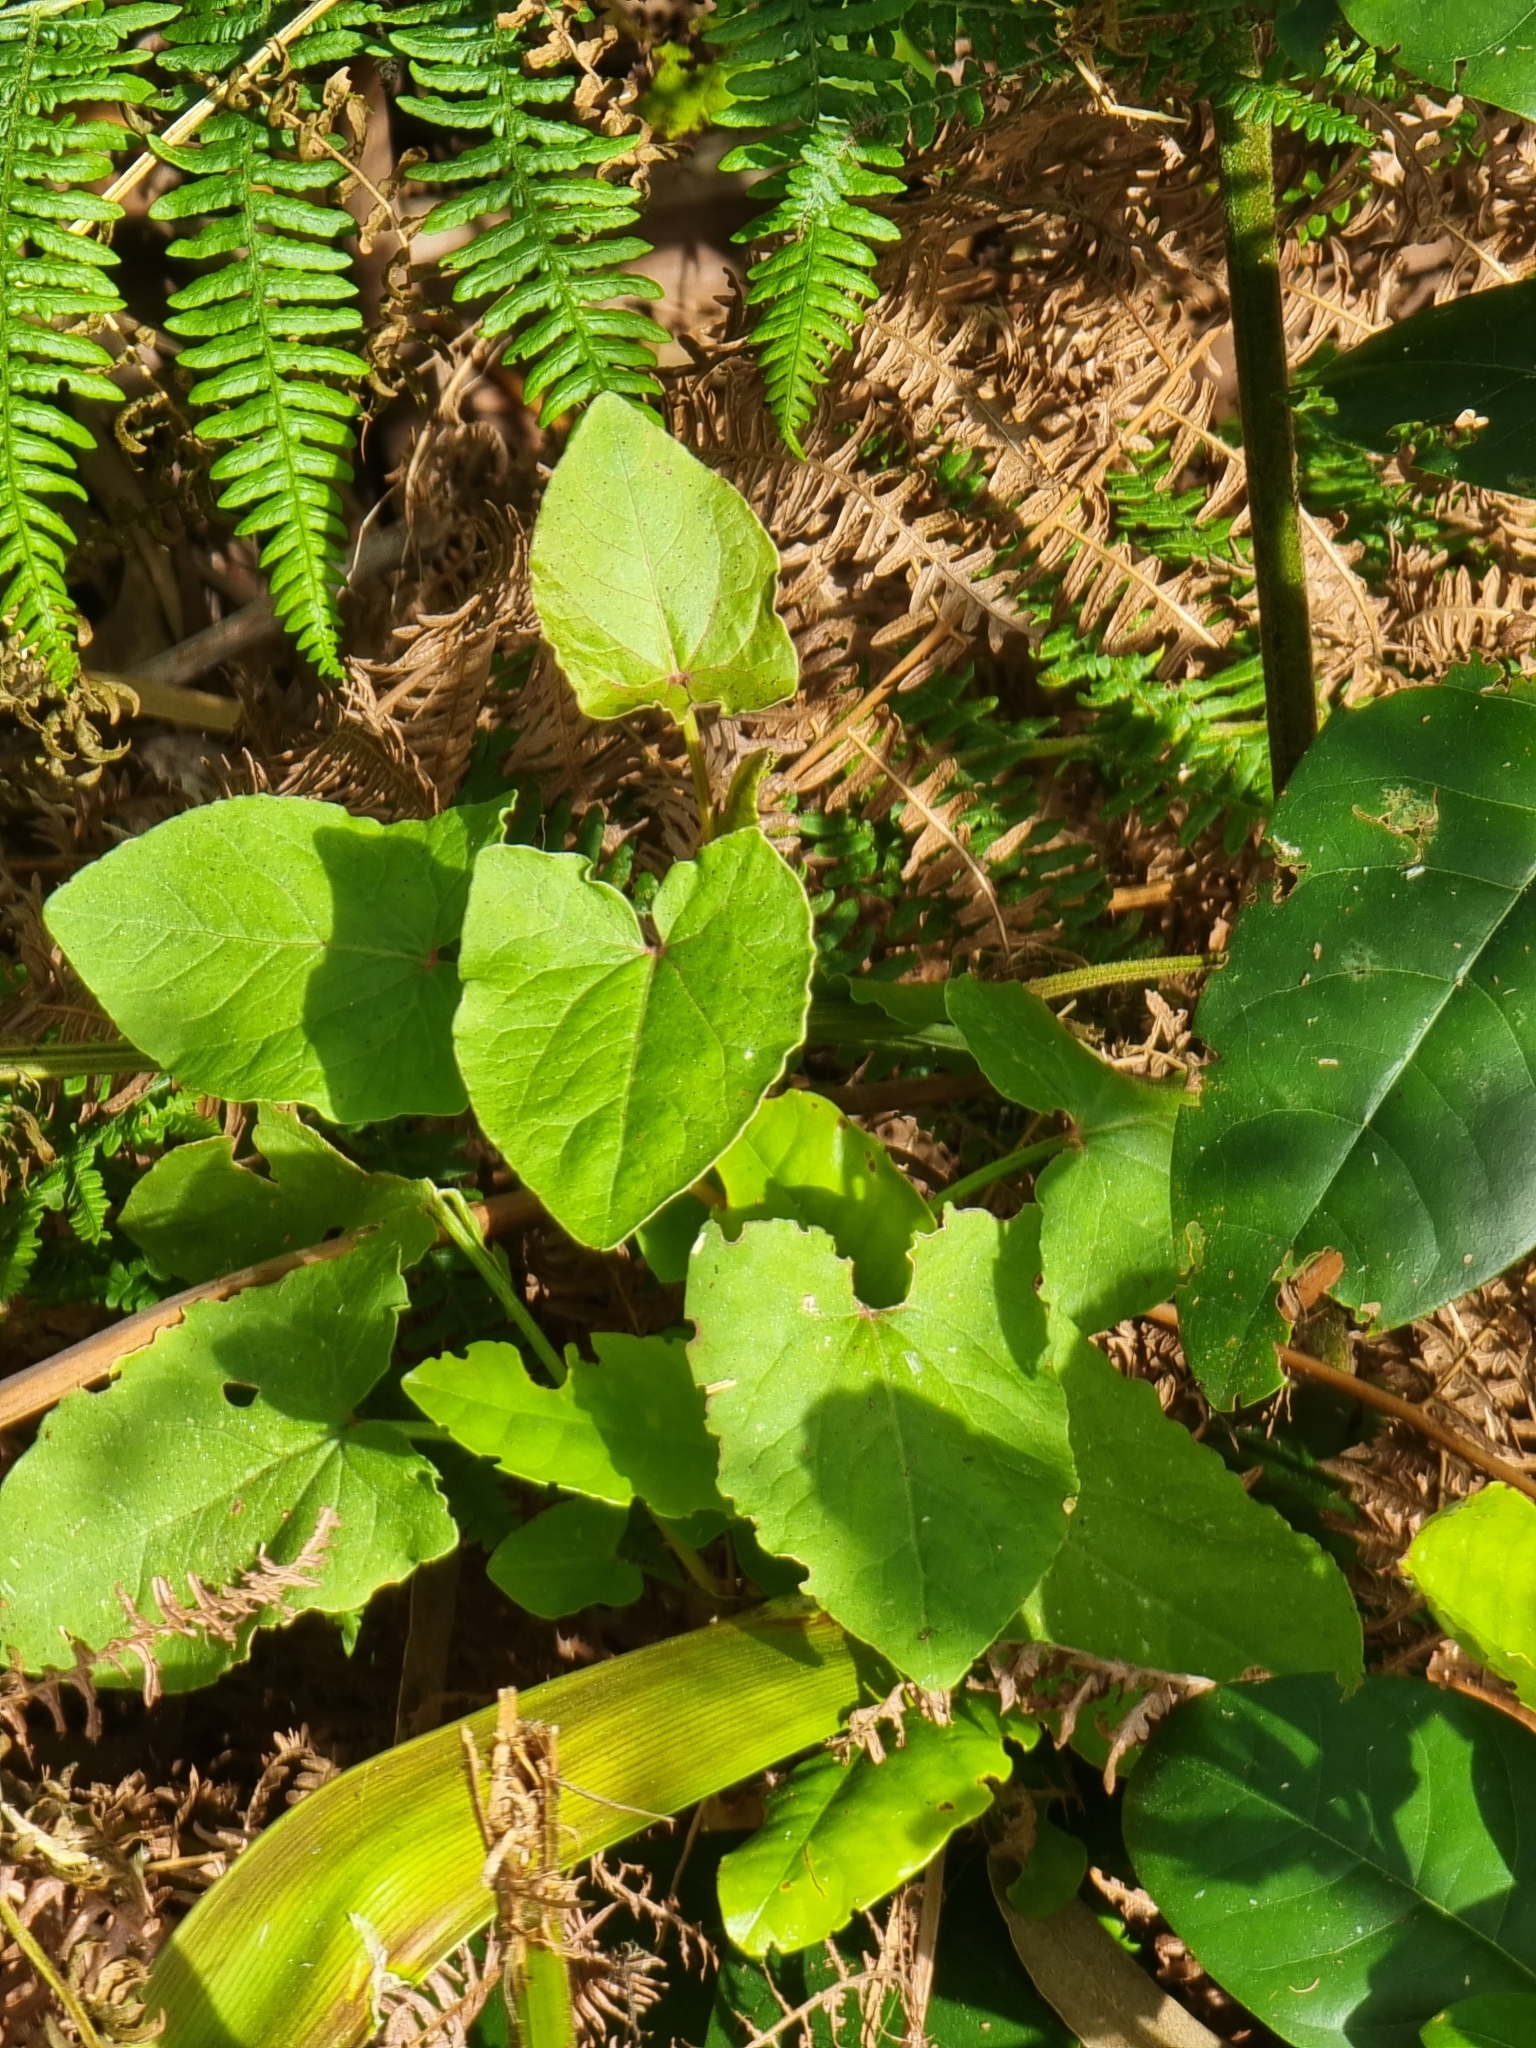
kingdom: Plantae
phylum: Tracheophyta
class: Magnoliopsida
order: Caryophyllales
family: Polygonaceae
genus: Rumex
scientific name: Rumex maderensis
